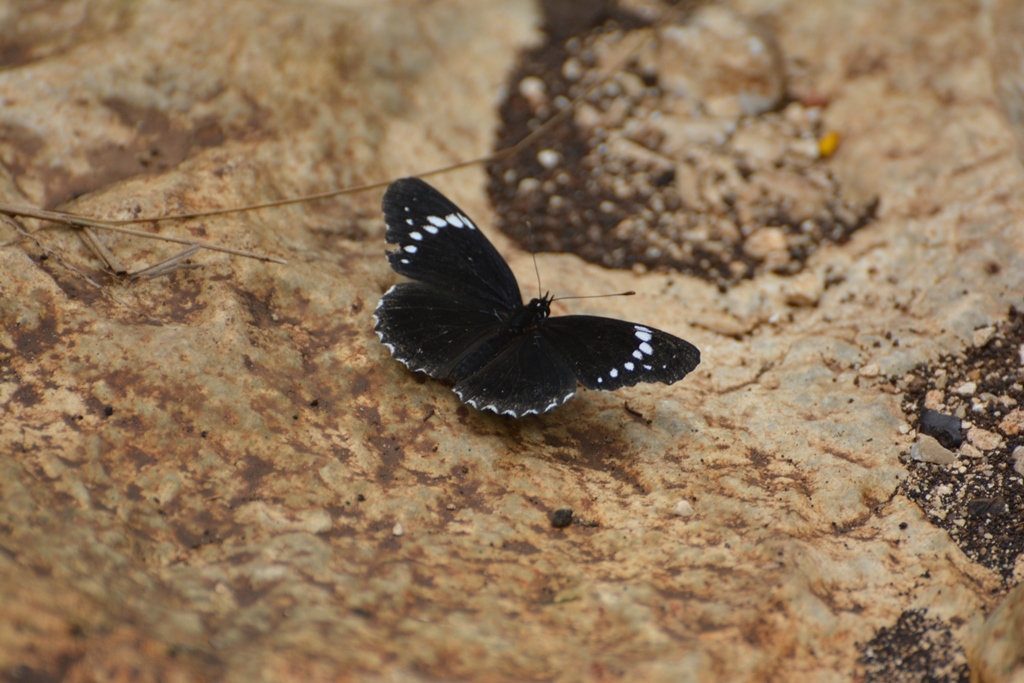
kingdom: Animalia
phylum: Arthropoda
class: Insecta
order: Lepidoptera
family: Nymphalidae
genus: Chlosyne
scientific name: Chlosyne hippodrome
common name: Simple patch
